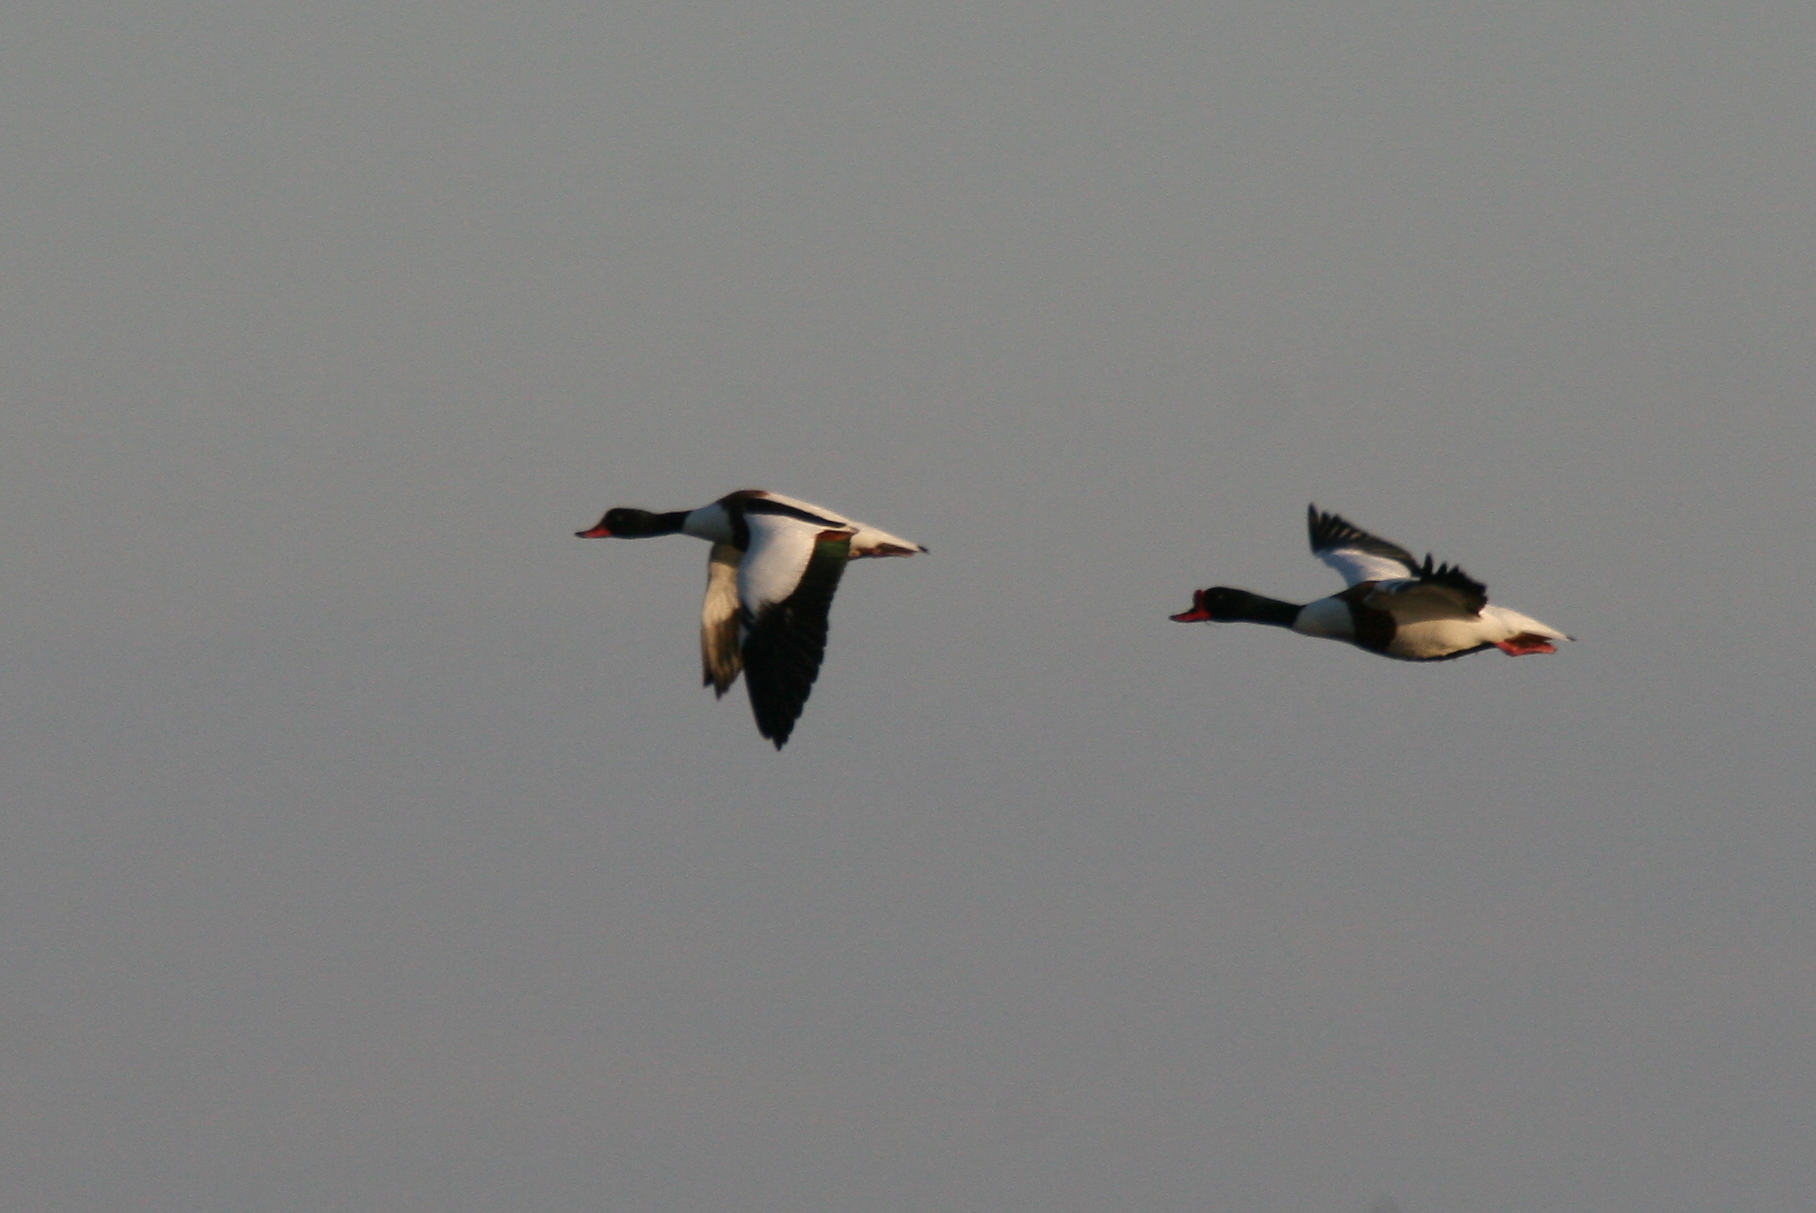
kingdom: Animalia
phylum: Chordata
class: Aves
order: Anseriformes
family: Anatidae
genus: Tadorna
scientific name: Tadorna tadorna
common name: Common shelduck
